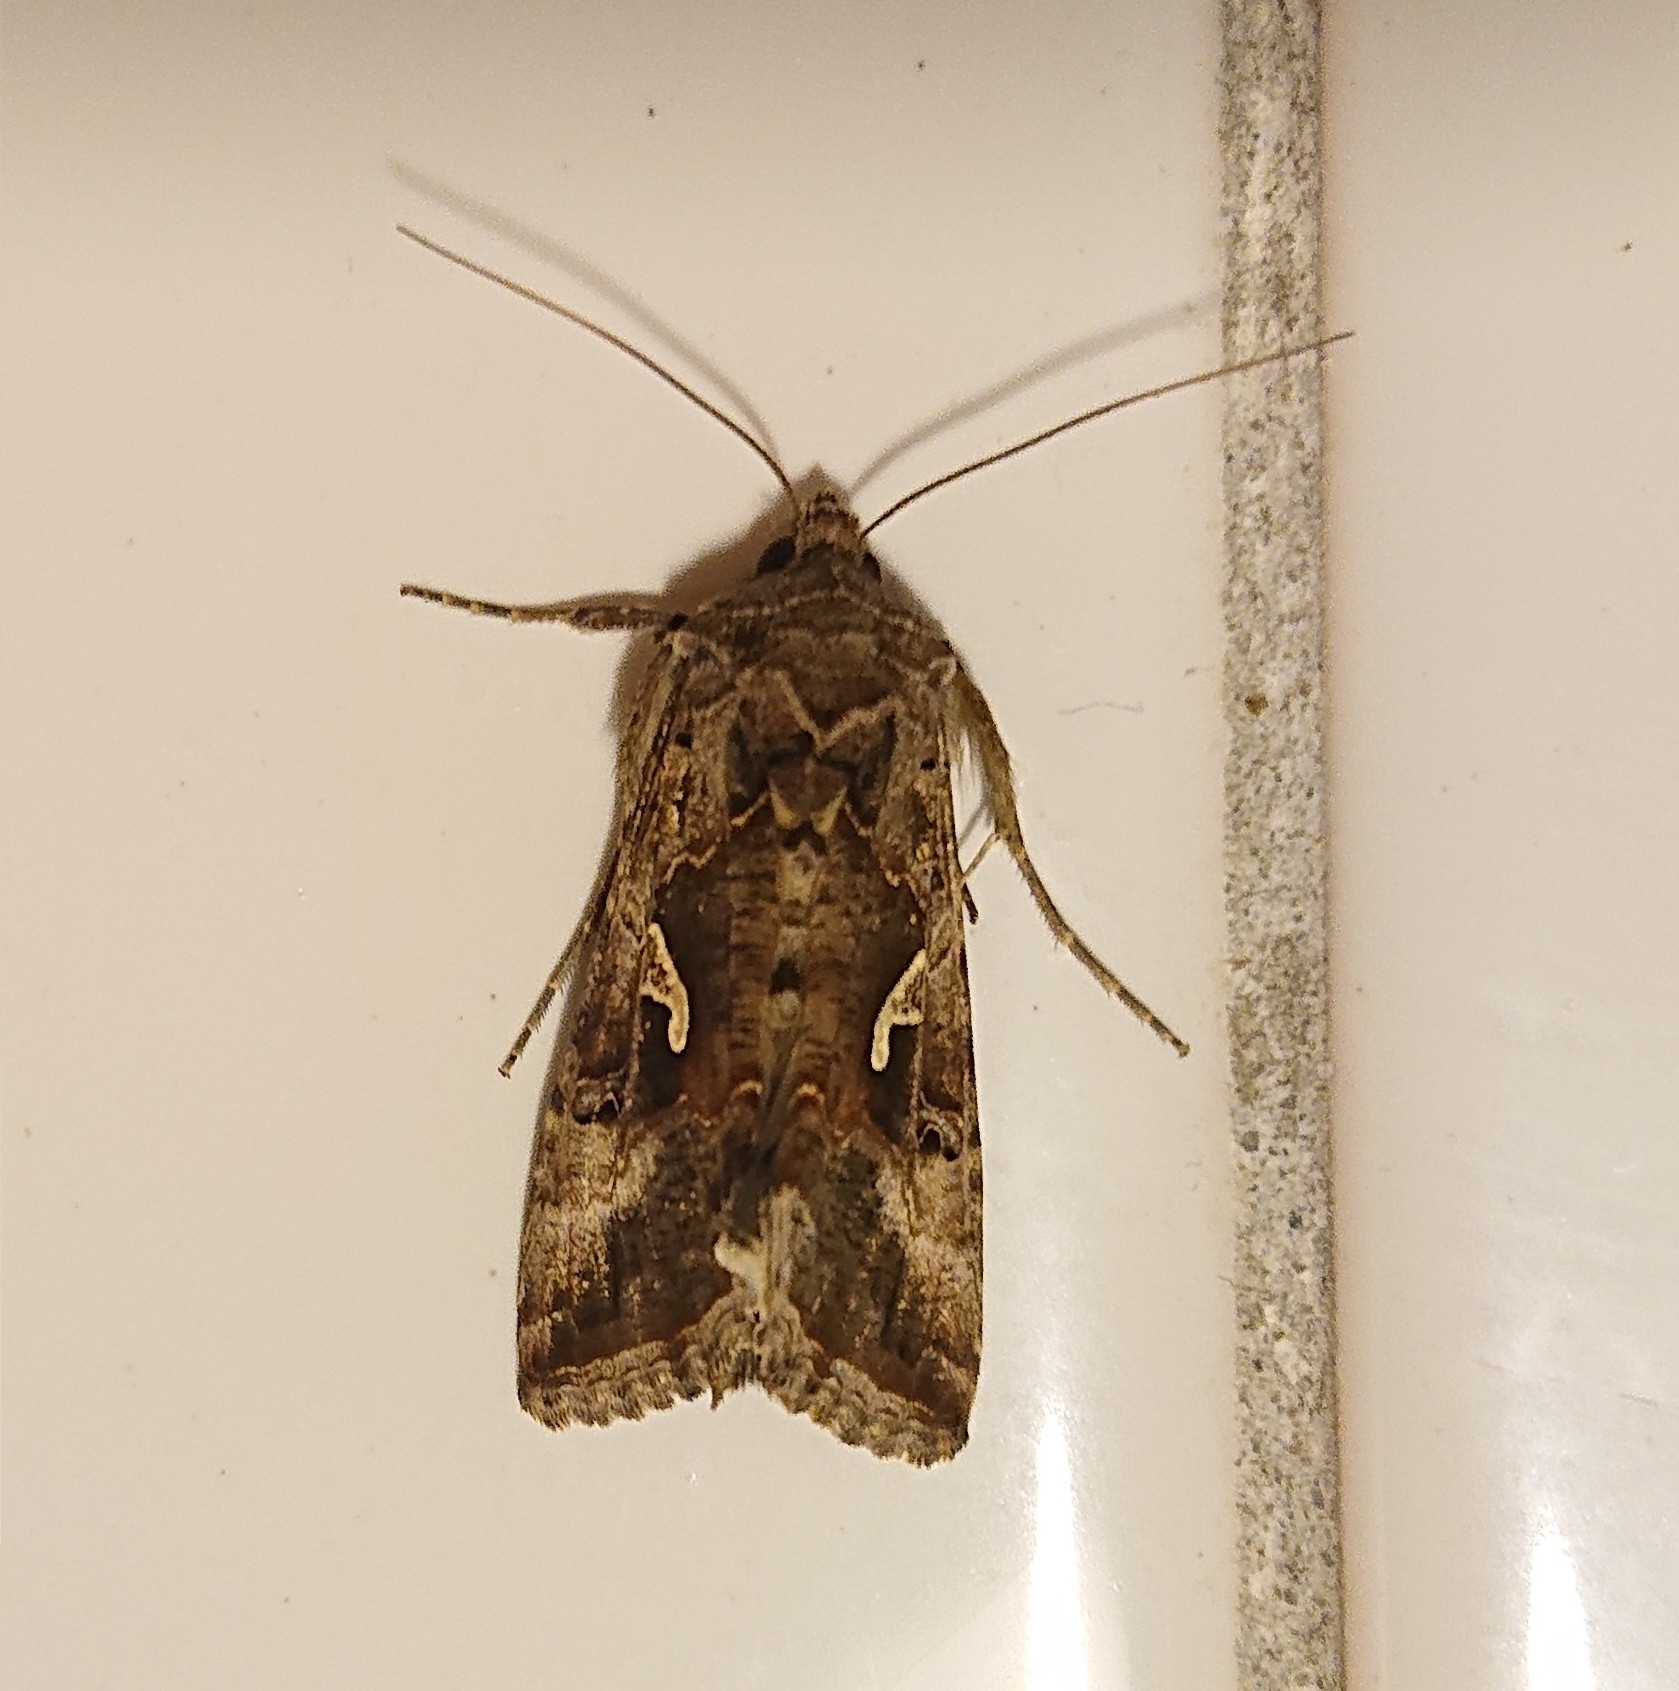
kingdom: Animalia
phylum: Arthropoda
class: Insecta
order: Lepidoptera
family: Noctuidae
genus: Autographa
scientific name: Autographa gamma
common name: Silver y
